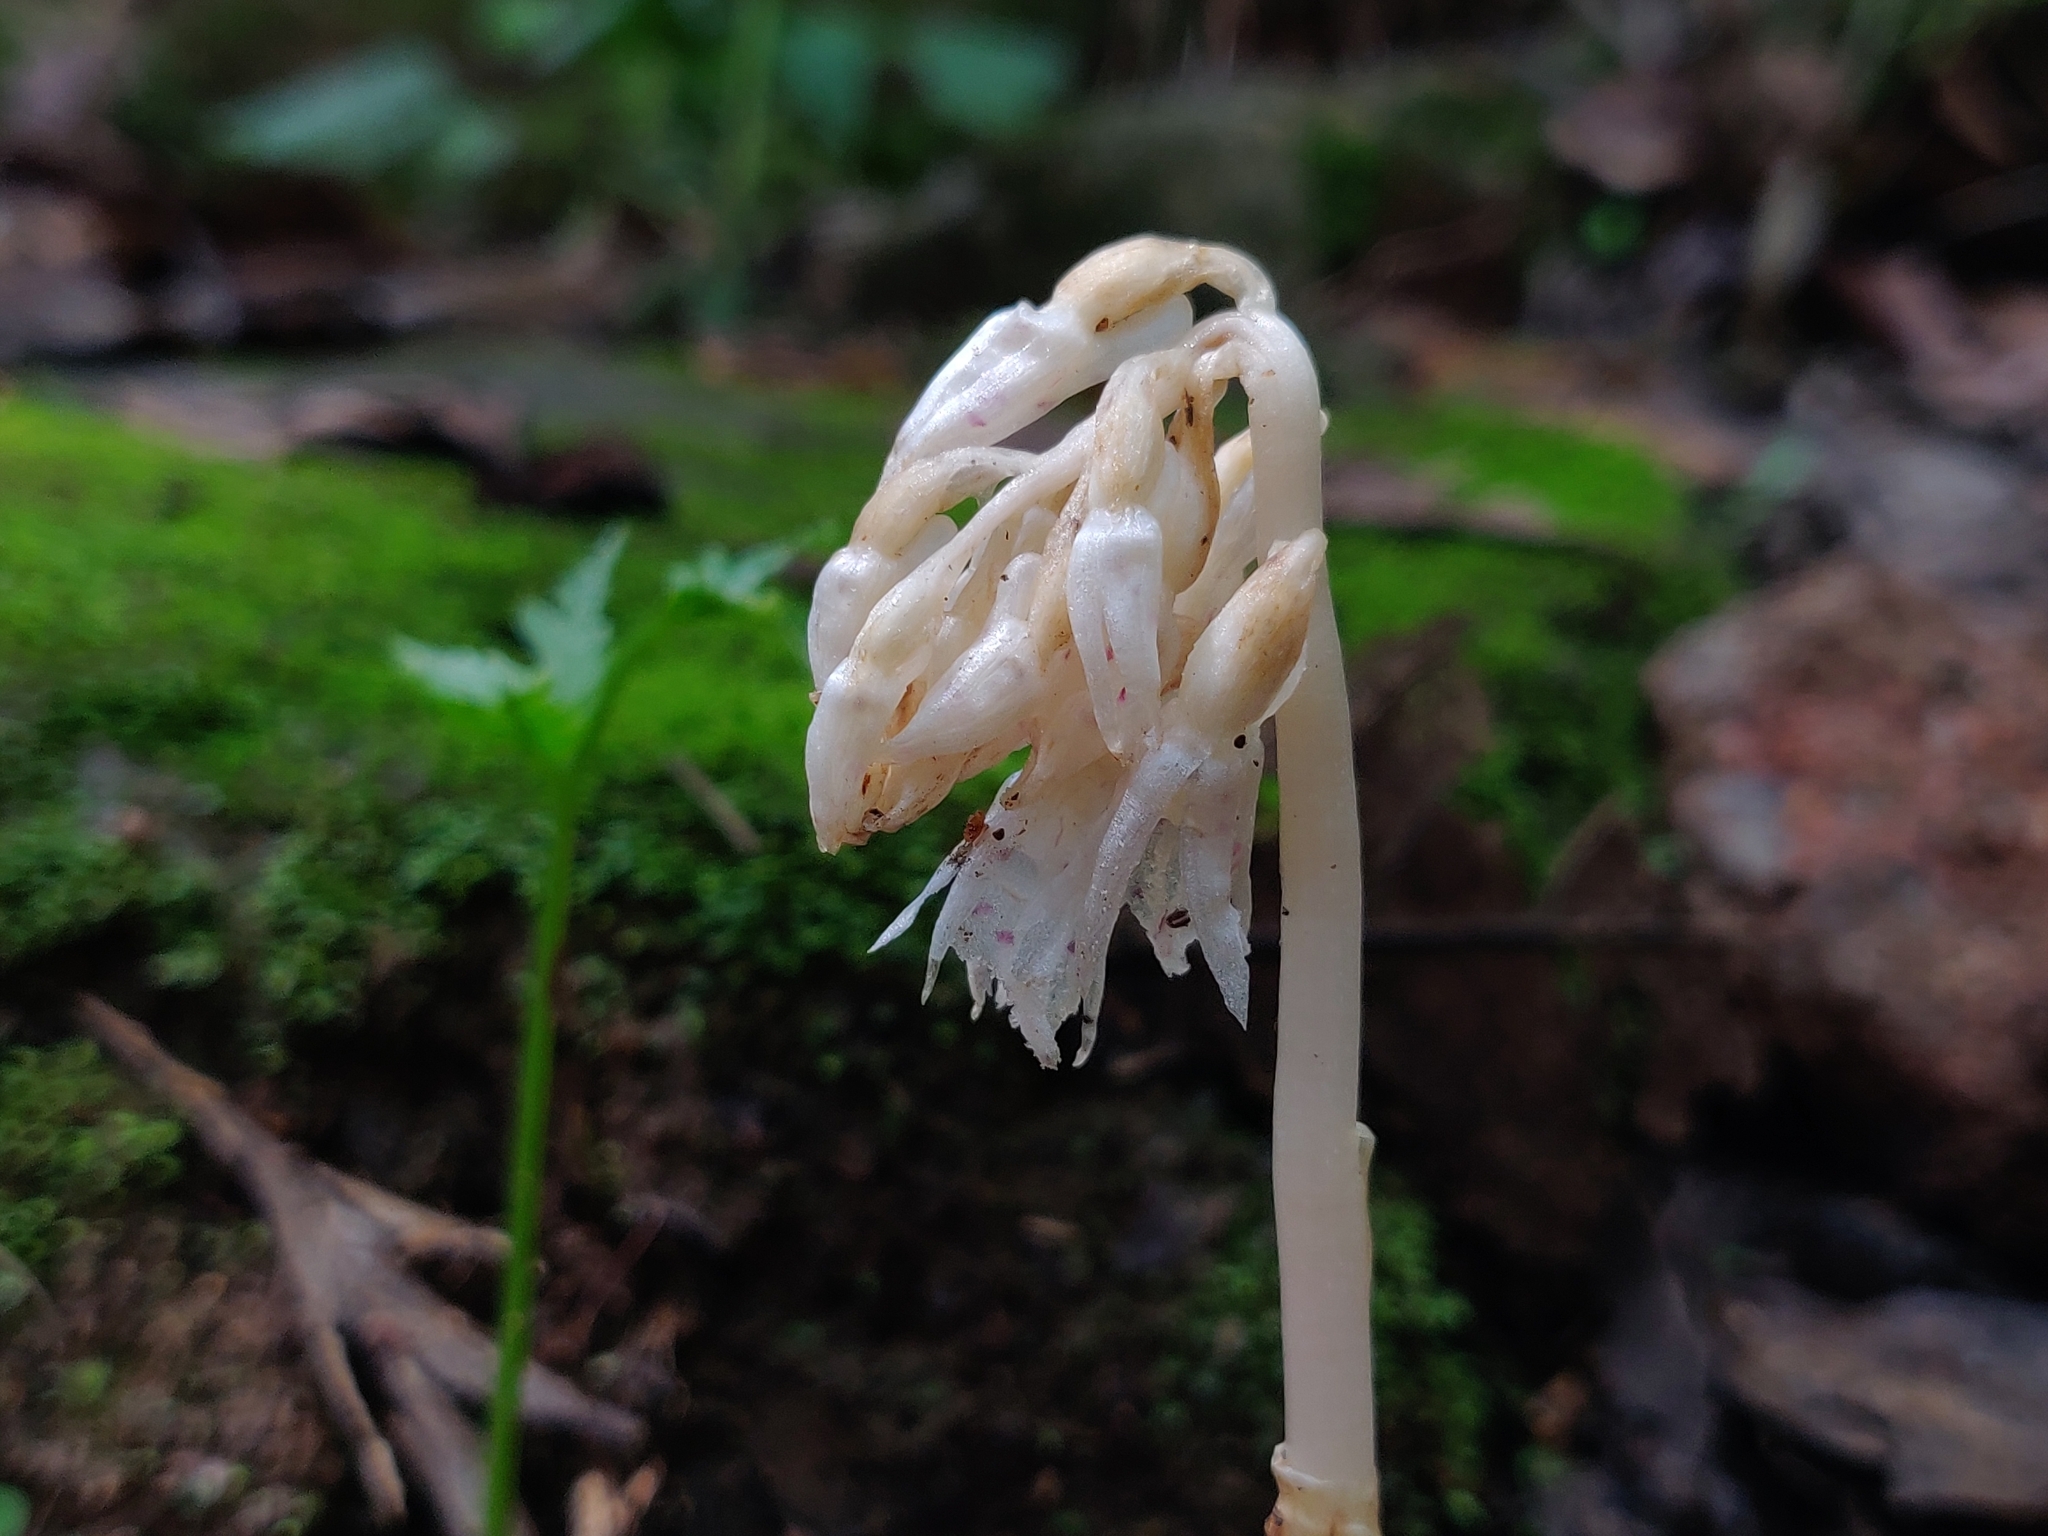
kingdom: Plantae
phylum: Tracheophyta
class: Liliopsida
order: Asparagales
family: Orchidaceae
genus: Epipogium
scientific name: Epipogium roseum
